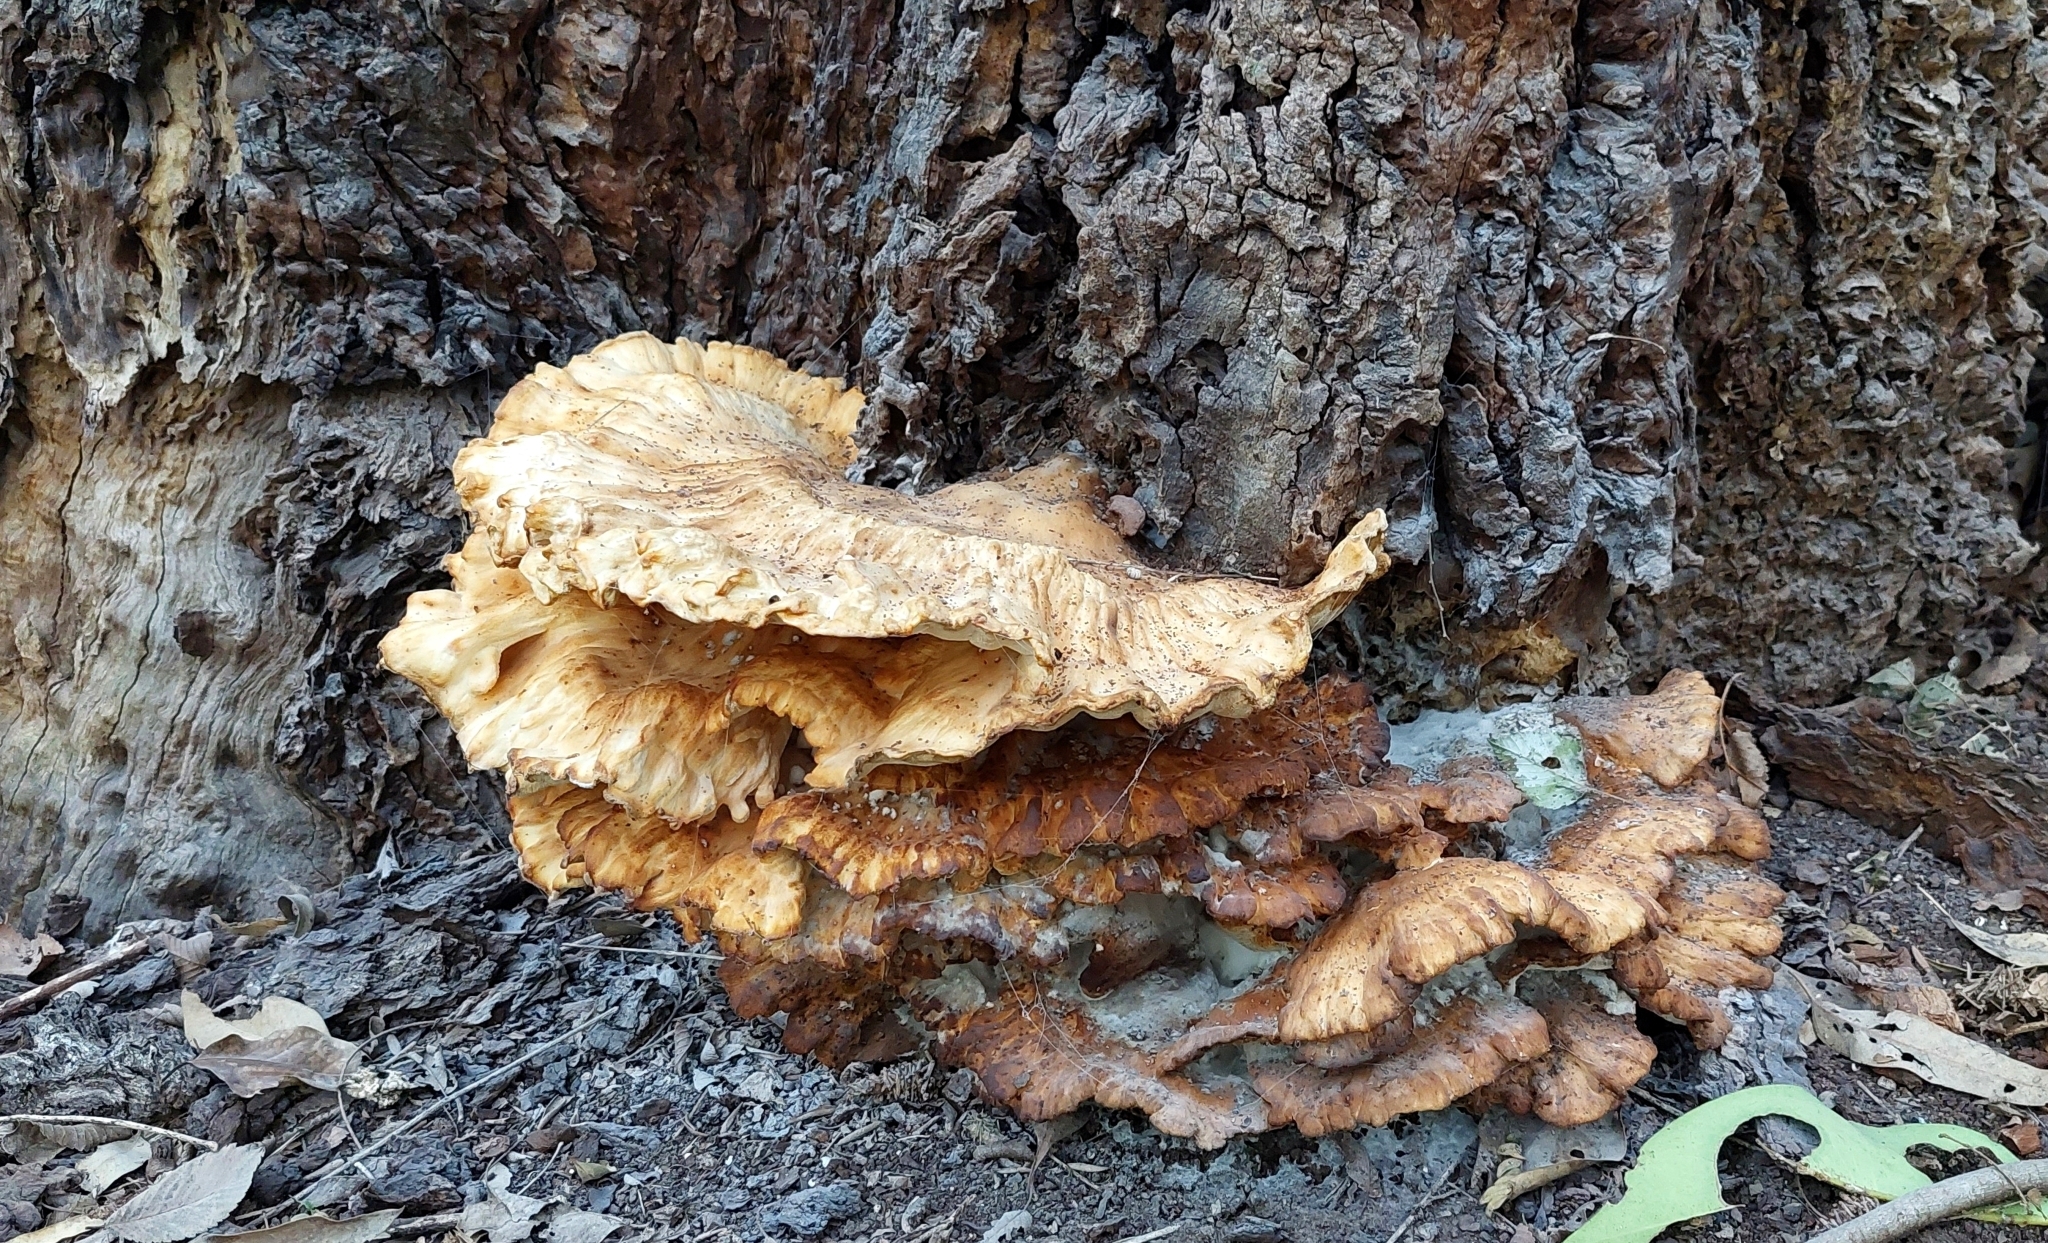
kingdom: Fungi
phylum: Basidiomycota
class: Agaricomycetes
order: Polyporales
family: Laetiporaceae
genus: Laetiporus
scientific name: Laetiporus sulphureus
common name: Chicken of the woods
